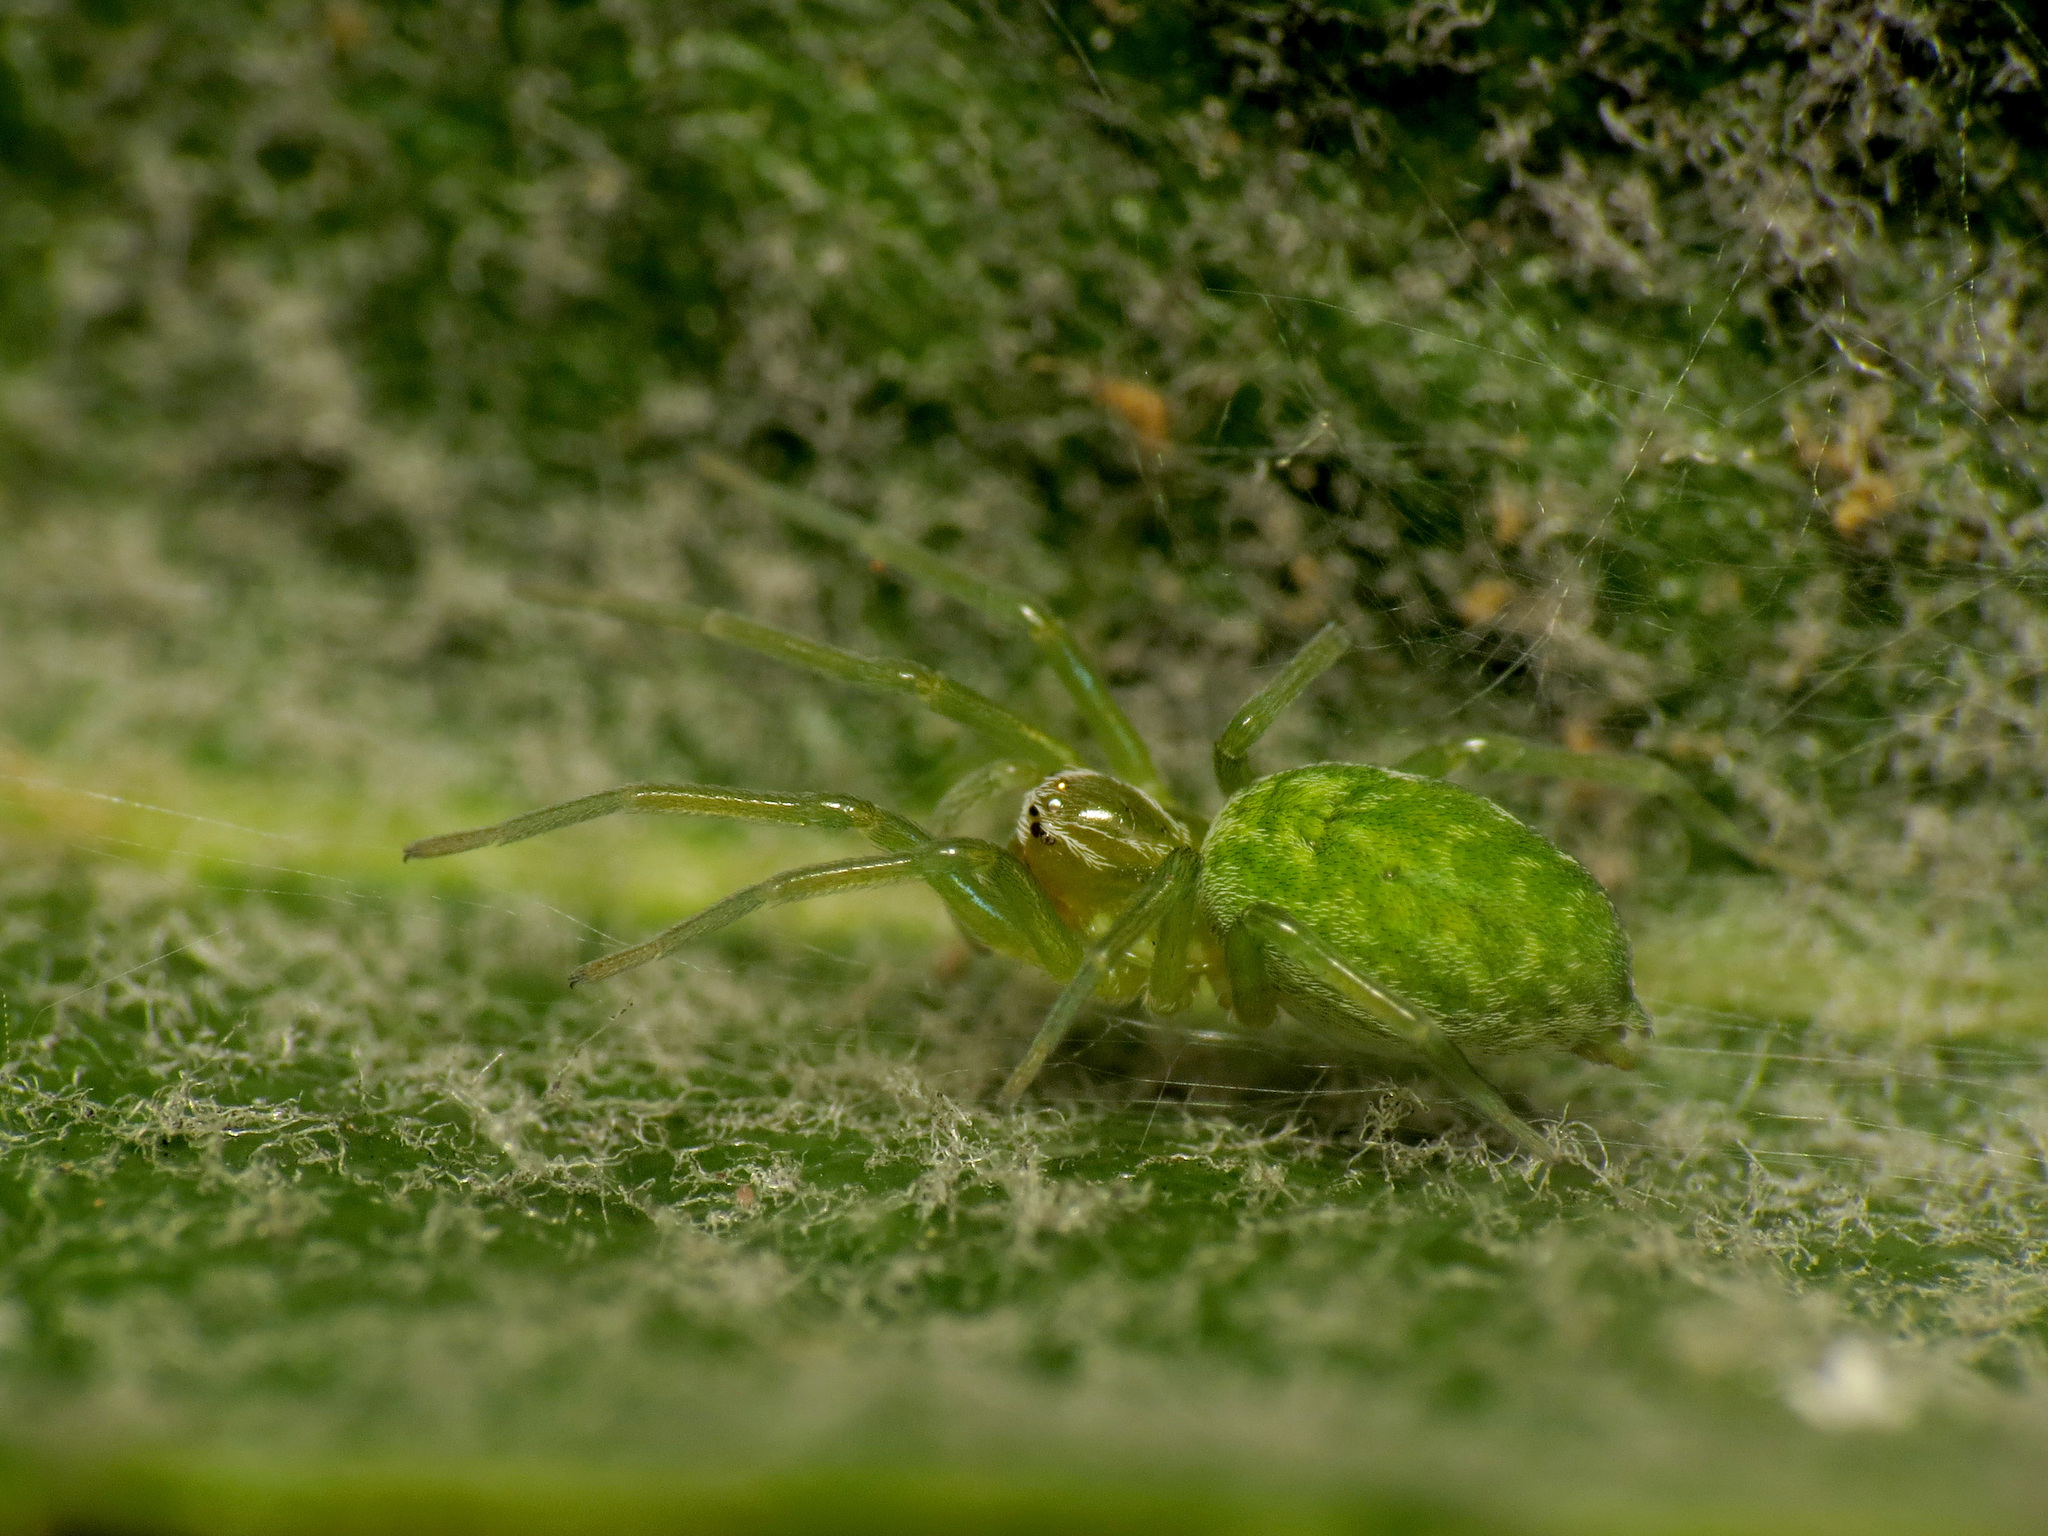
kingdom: Animalia
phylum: Arthropoda
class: Arachnida
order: Araneae
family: Dictynidae
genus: Nigma
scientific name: Nigma walckenaeri
